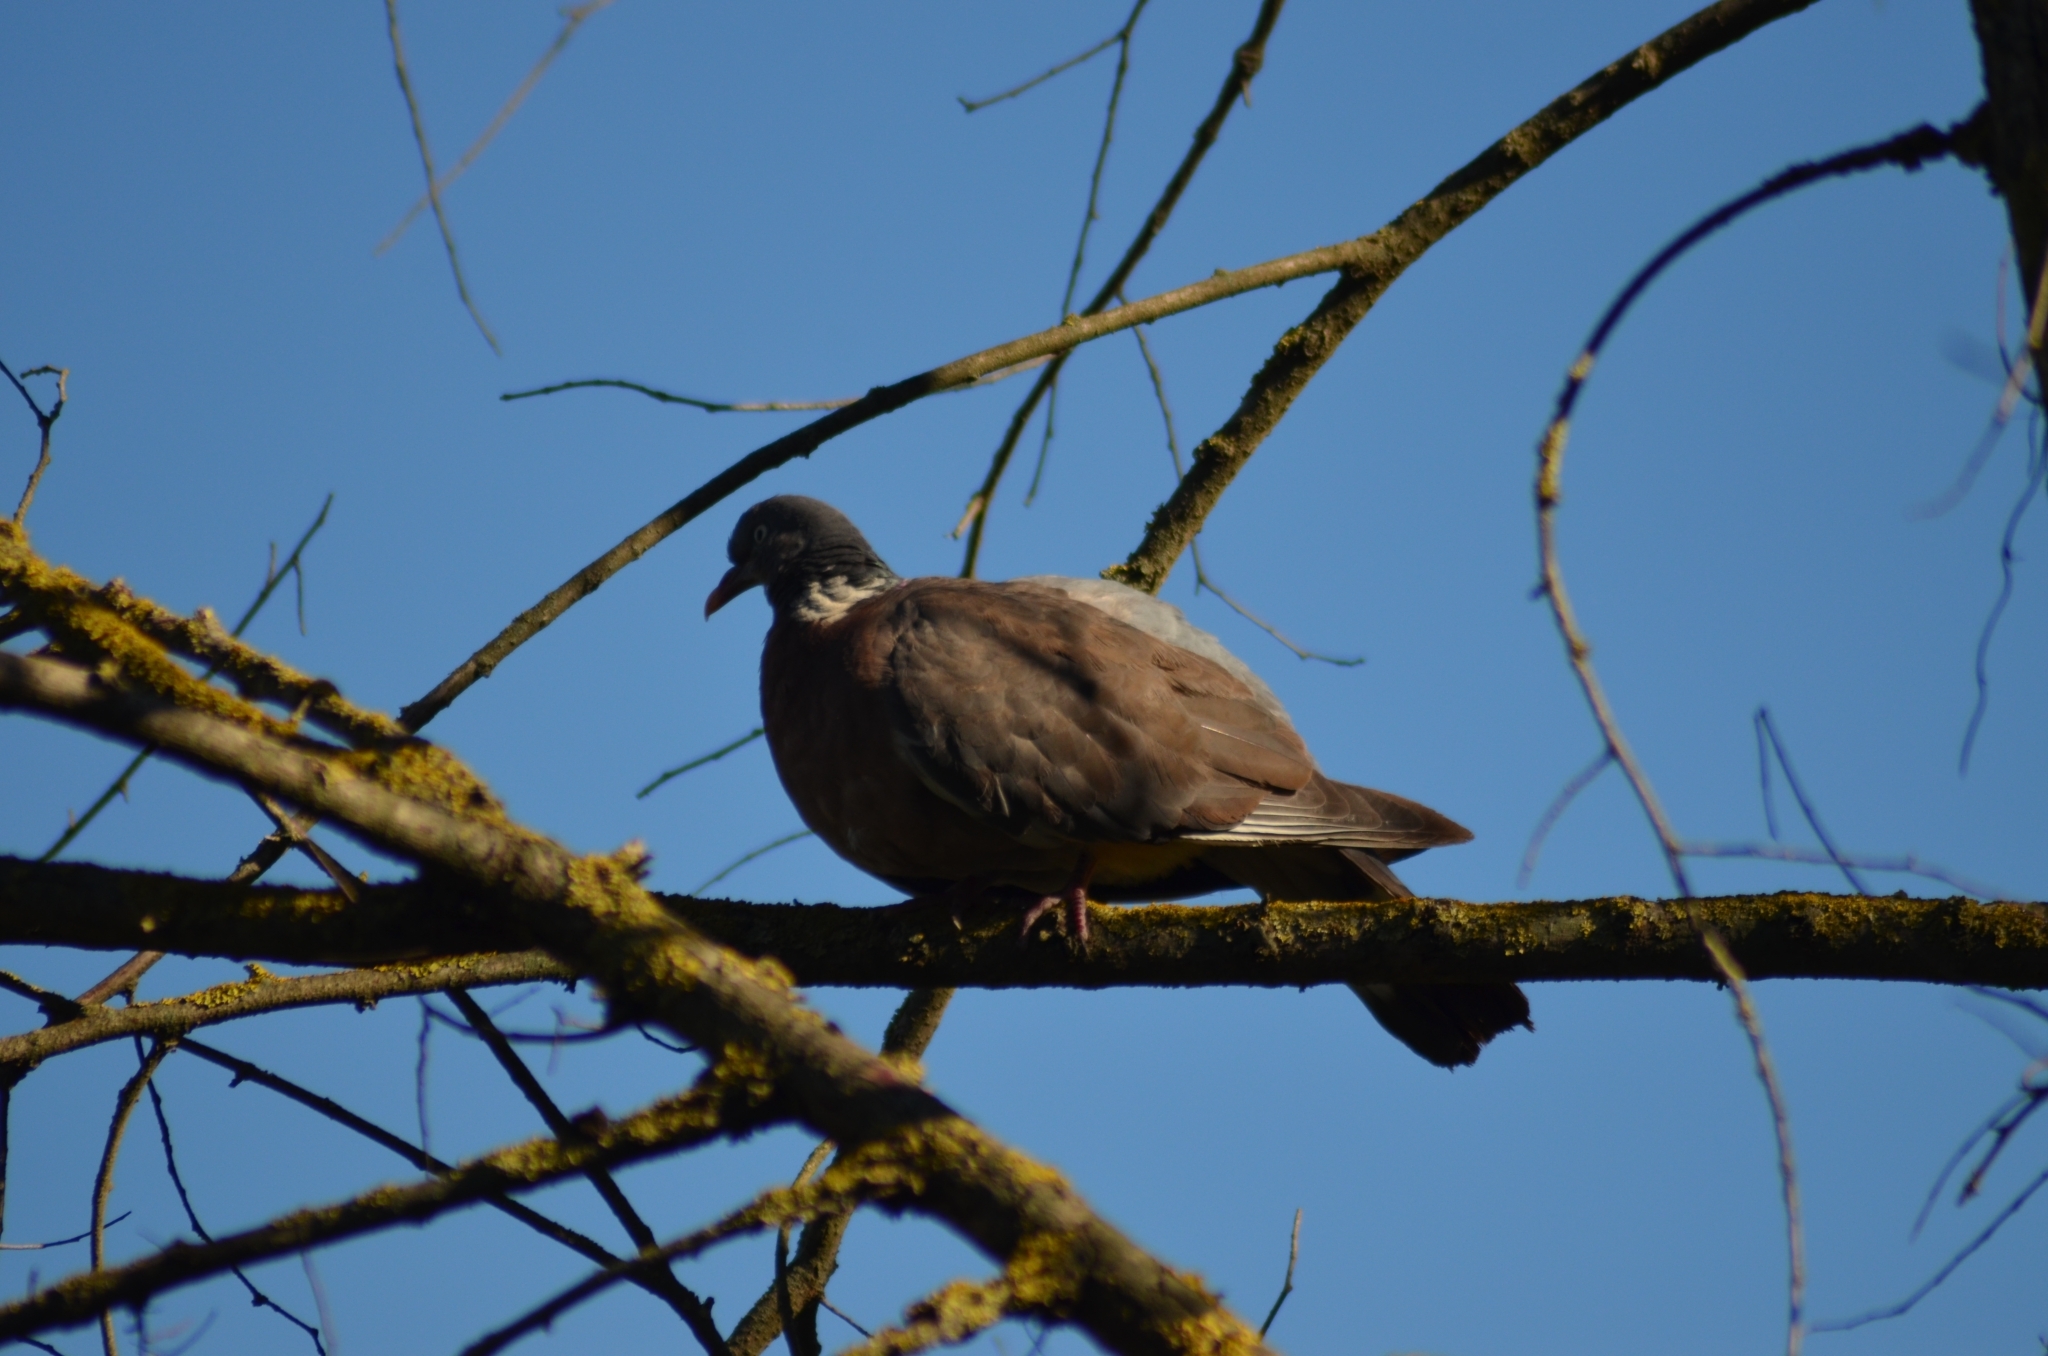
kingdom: Animalia
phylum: Chordata
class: Aves
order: Columbiformes
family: Columbidae
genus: Columba
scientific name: Columba palumbus
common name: Common wood pigeon
